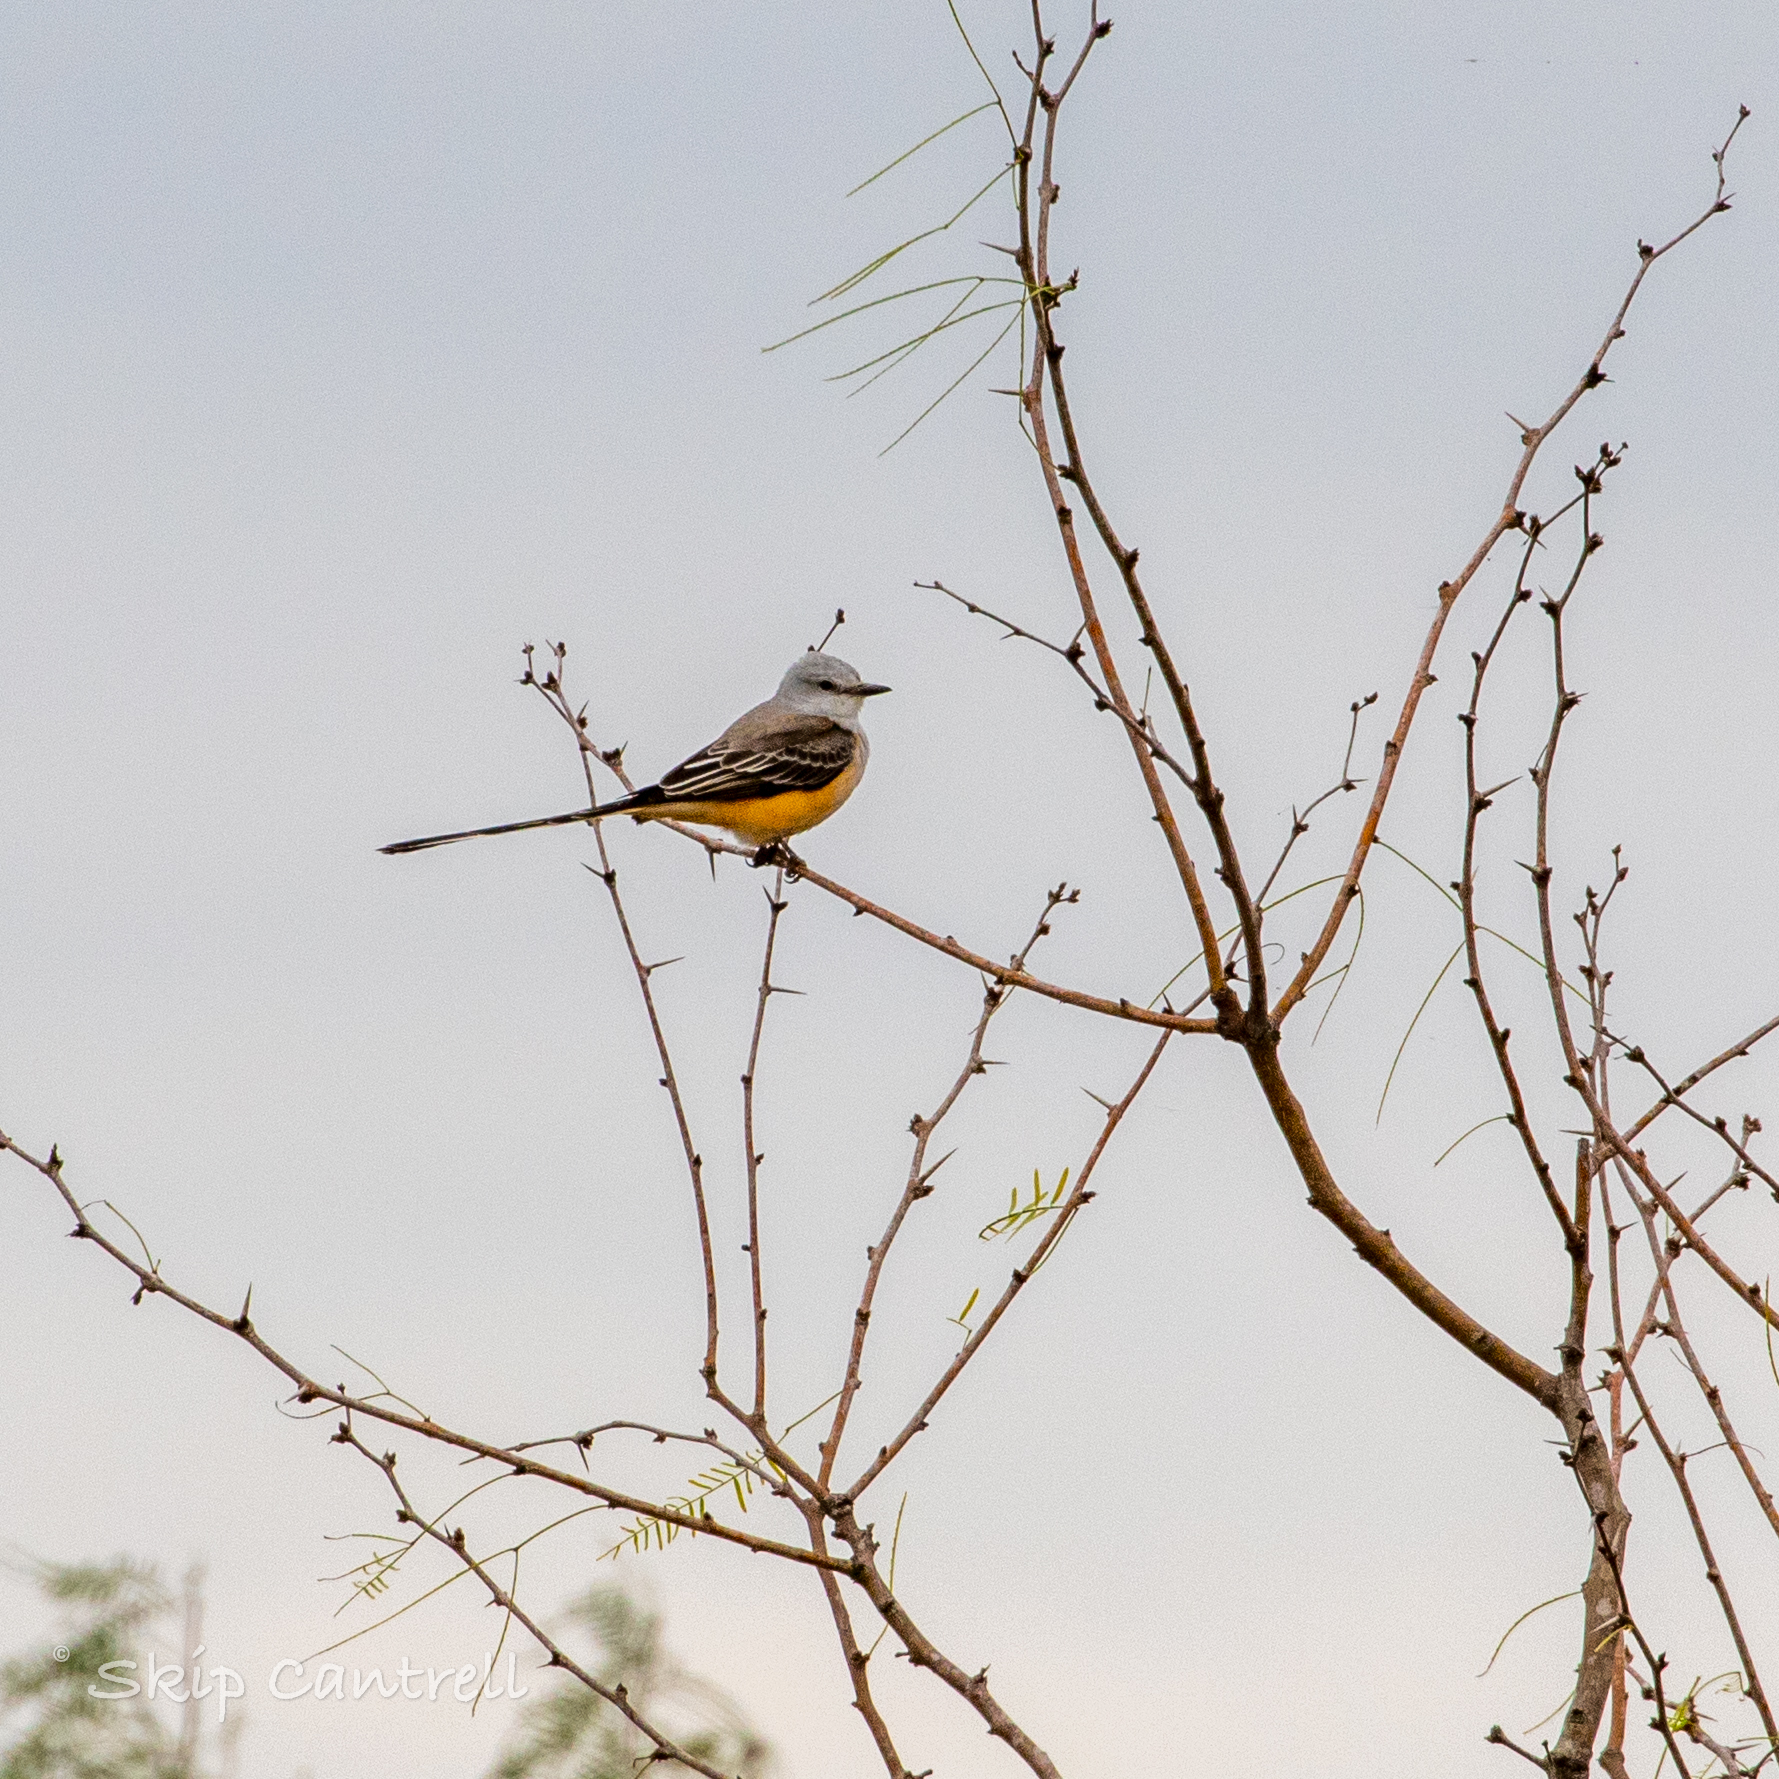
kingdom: Animalia
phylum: Chordata
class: Aves
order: Passeriformes
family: Tyrannidae
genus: Tyrannus
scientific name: Tyrannus forficatus
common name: Scissor-tailed flycatcher
